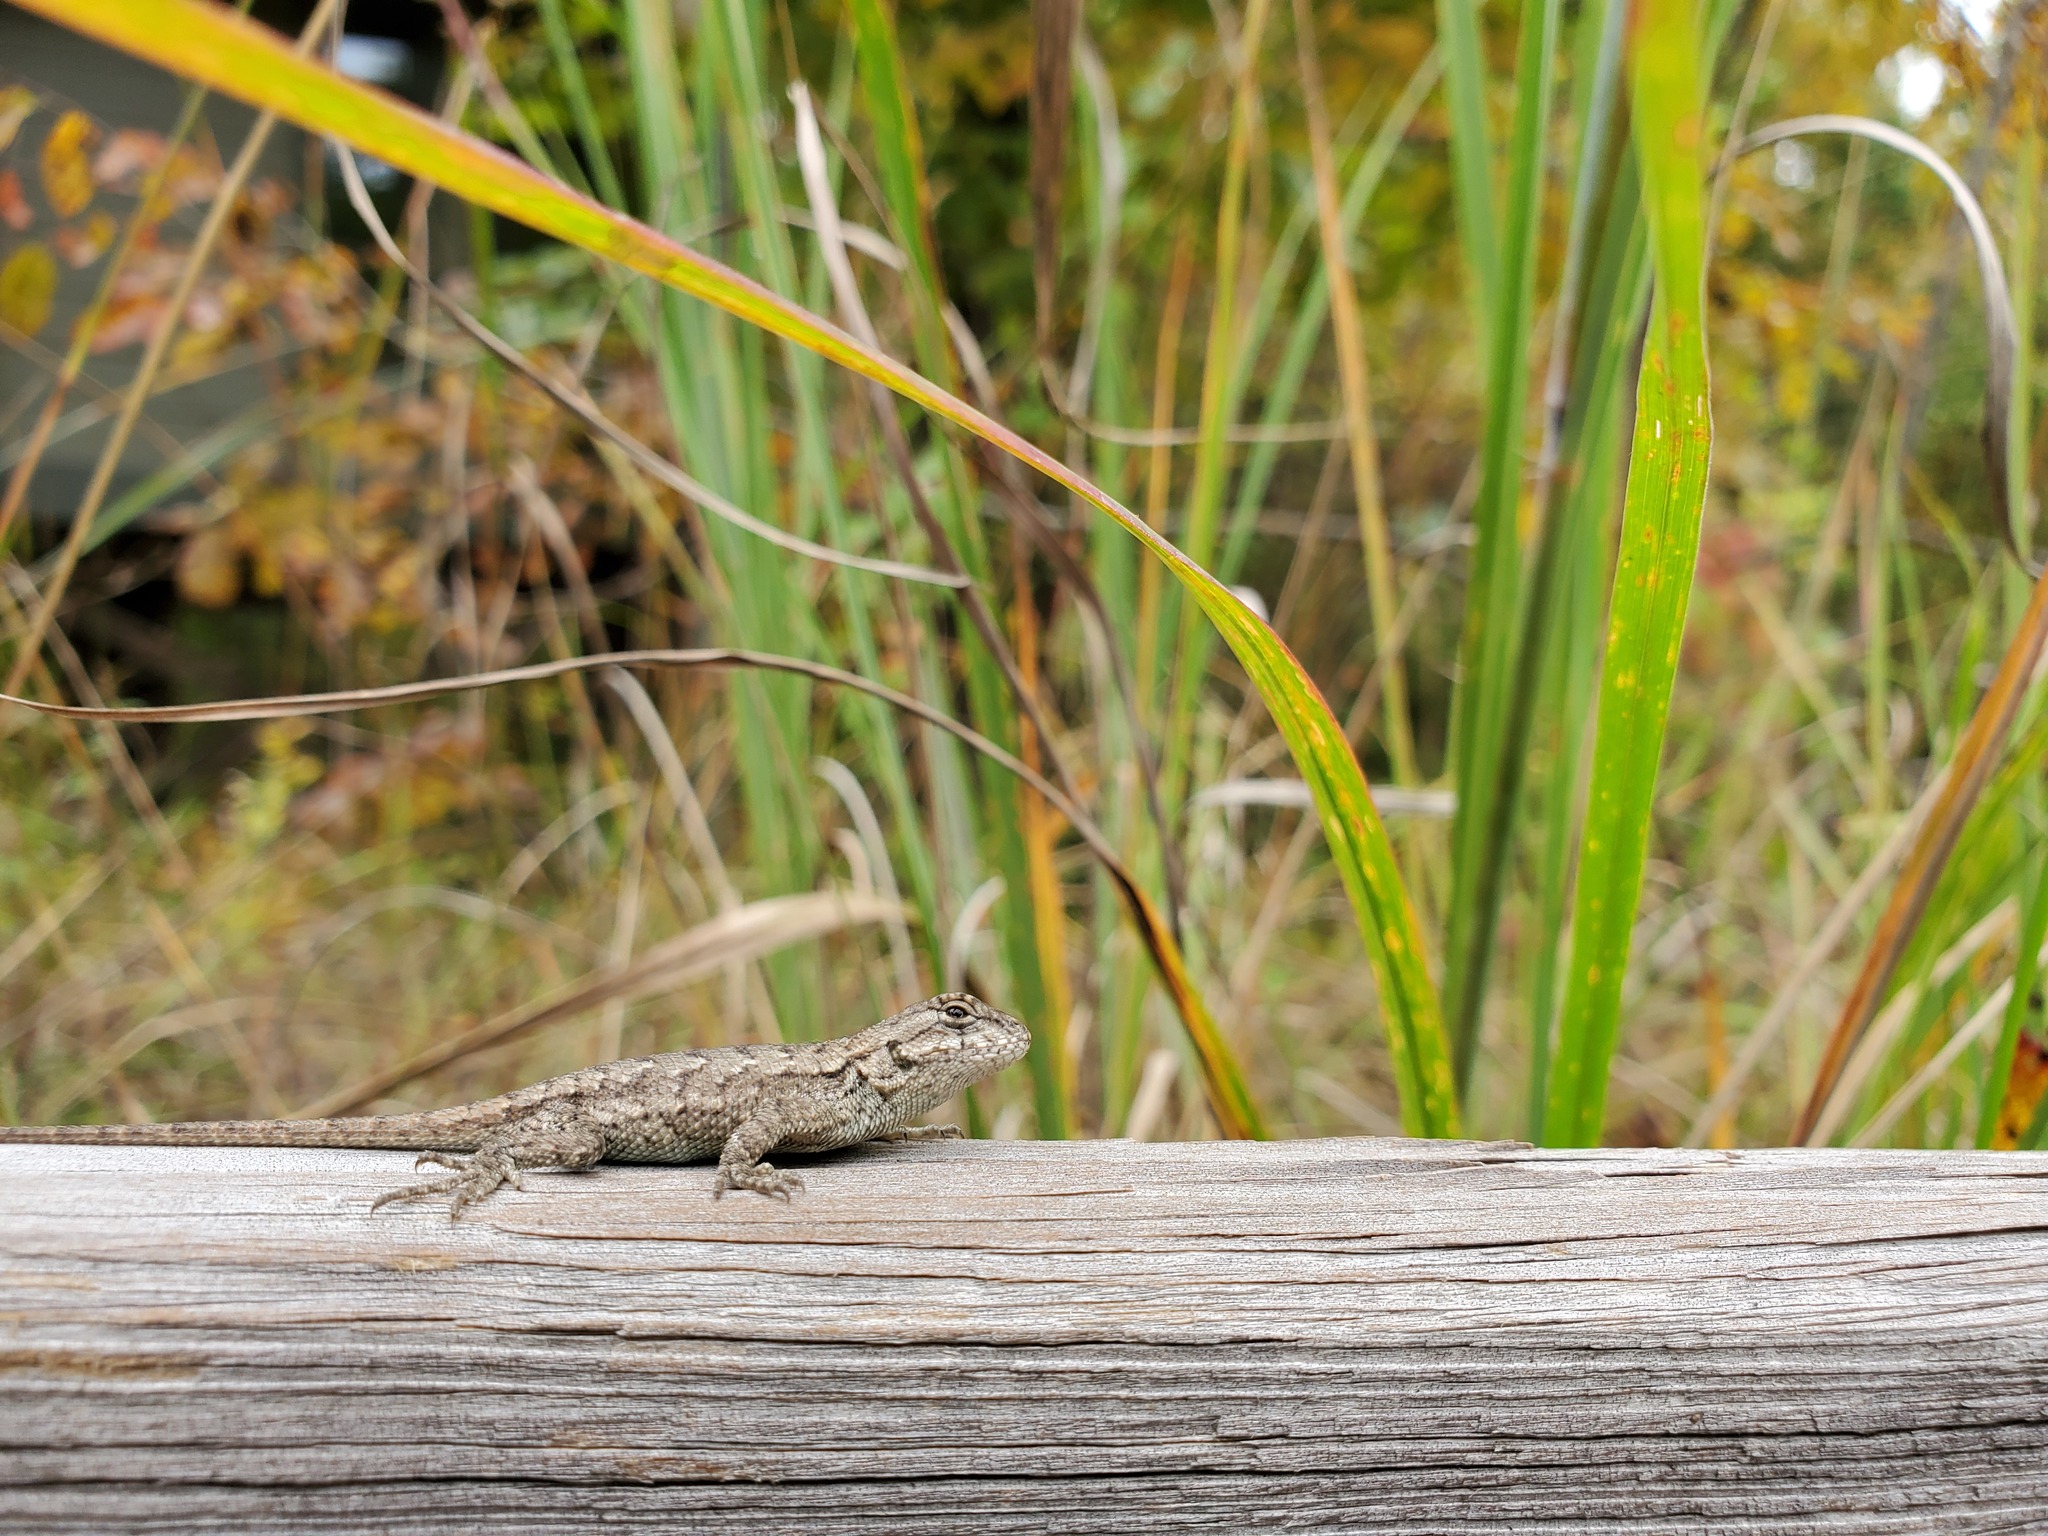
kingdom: Animalia
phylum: Chordata
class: Squamata
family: Phrynosomatidae
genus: Sceloporus
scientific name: Sceloporus undulatus
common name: Eastern fence lizard
